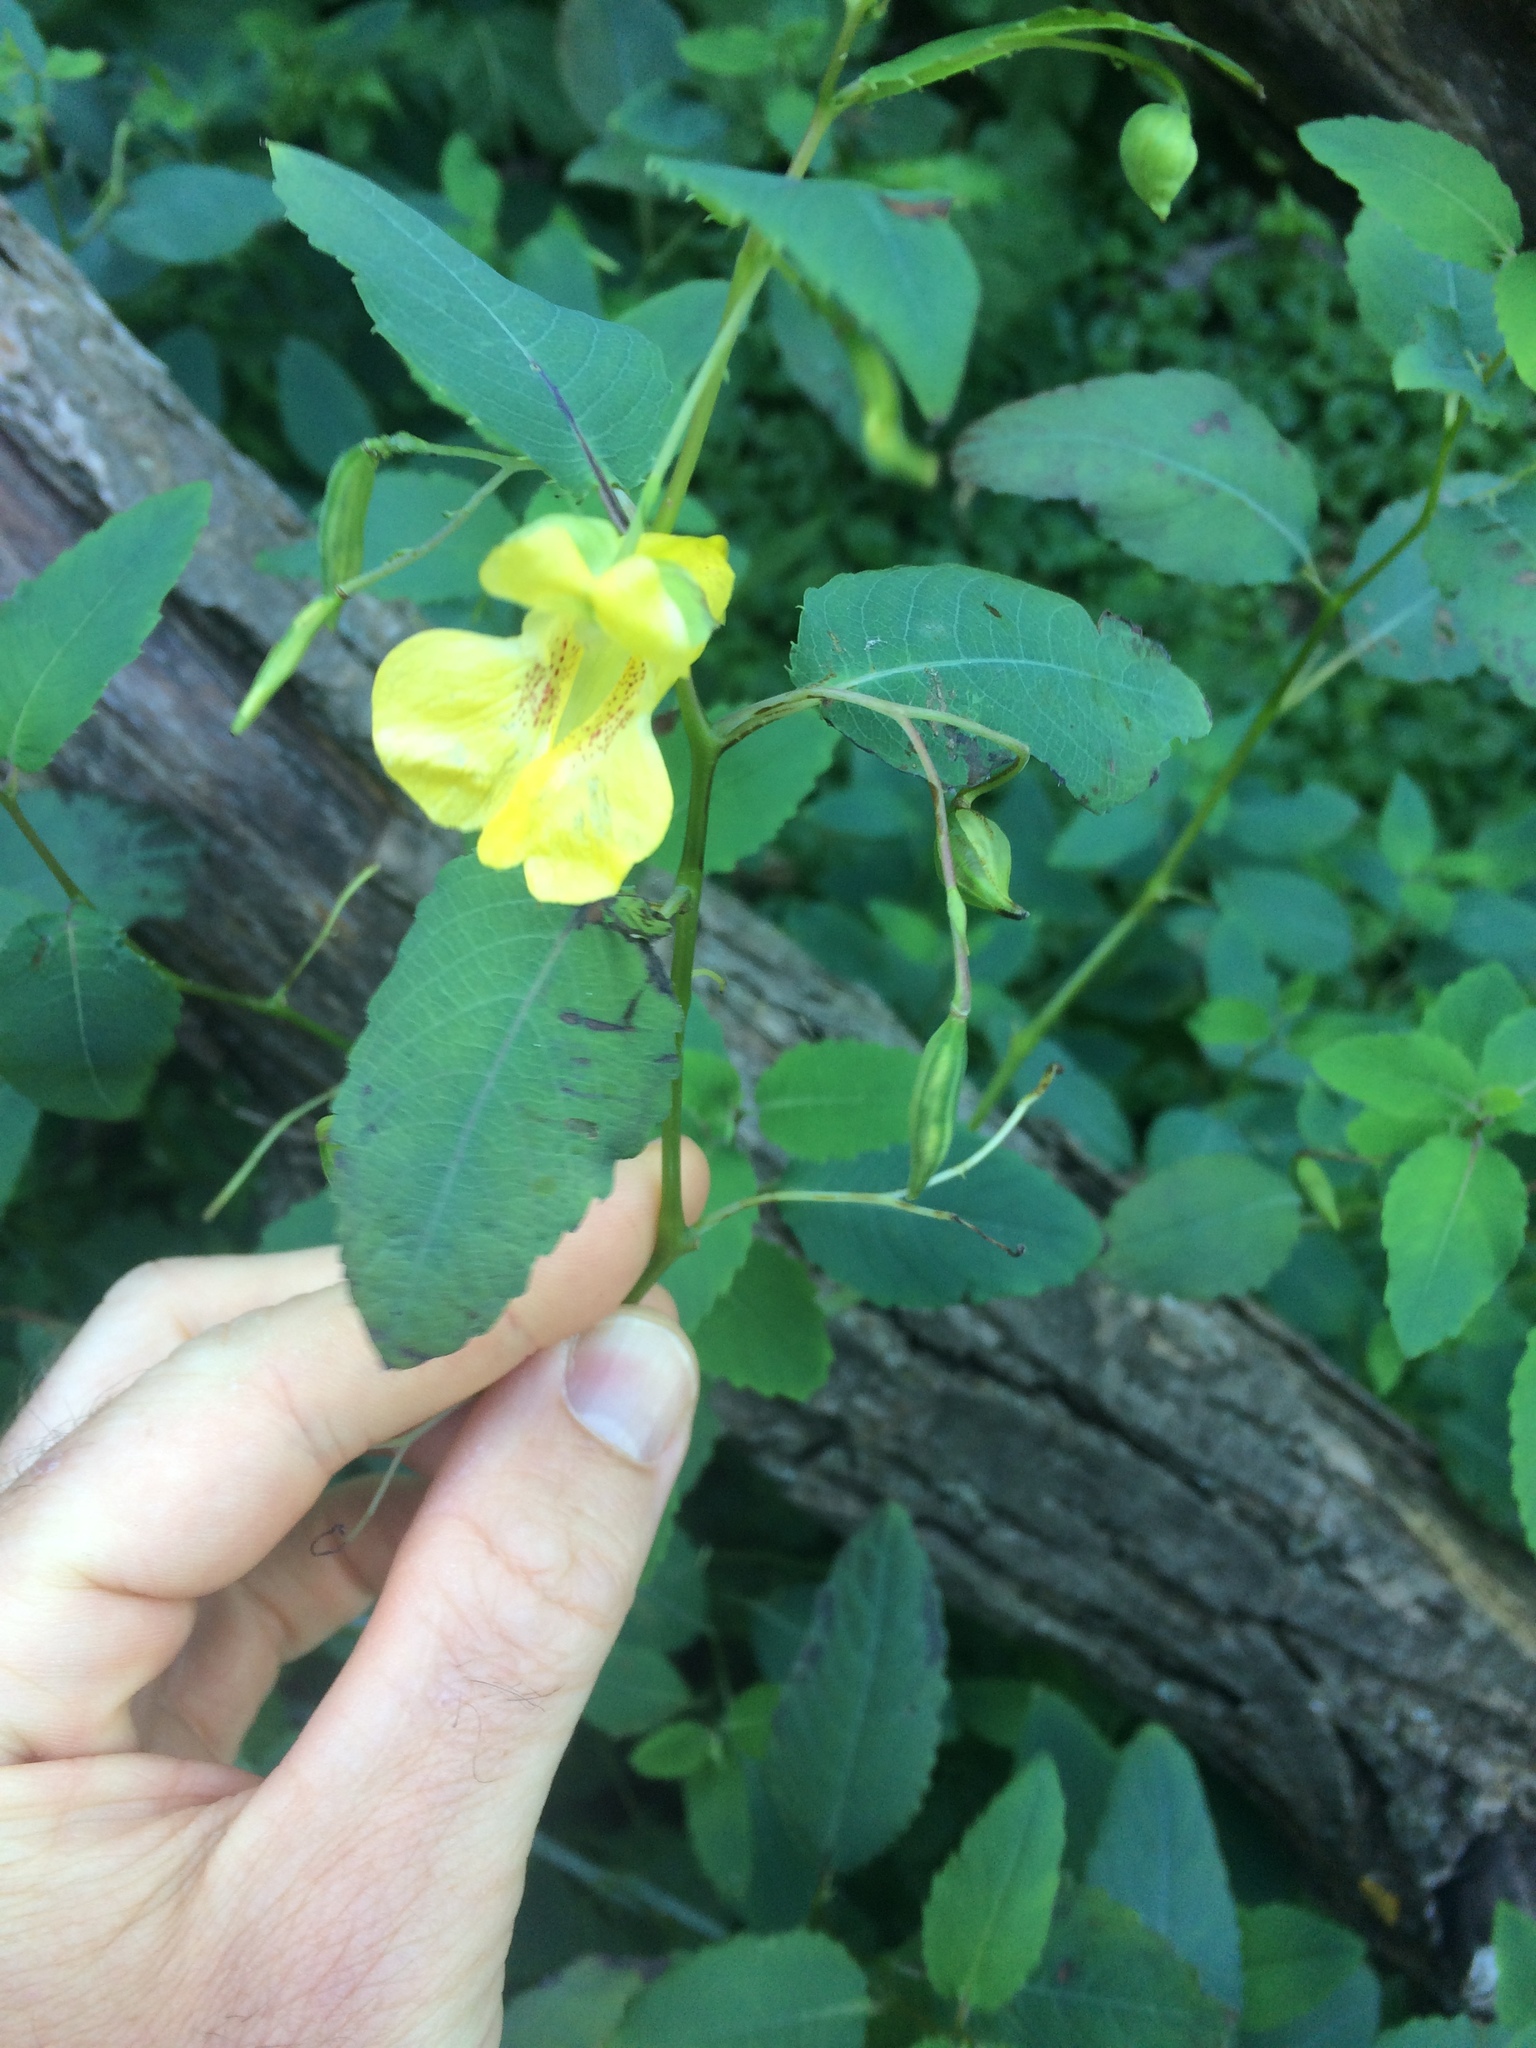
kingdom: Plantae
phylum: Tracheophyta
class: Magnoliopsida
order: Ericales
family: Balsaminaceae
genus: Impatiens
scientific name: Impatiens pallida
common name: Pale snapweed
